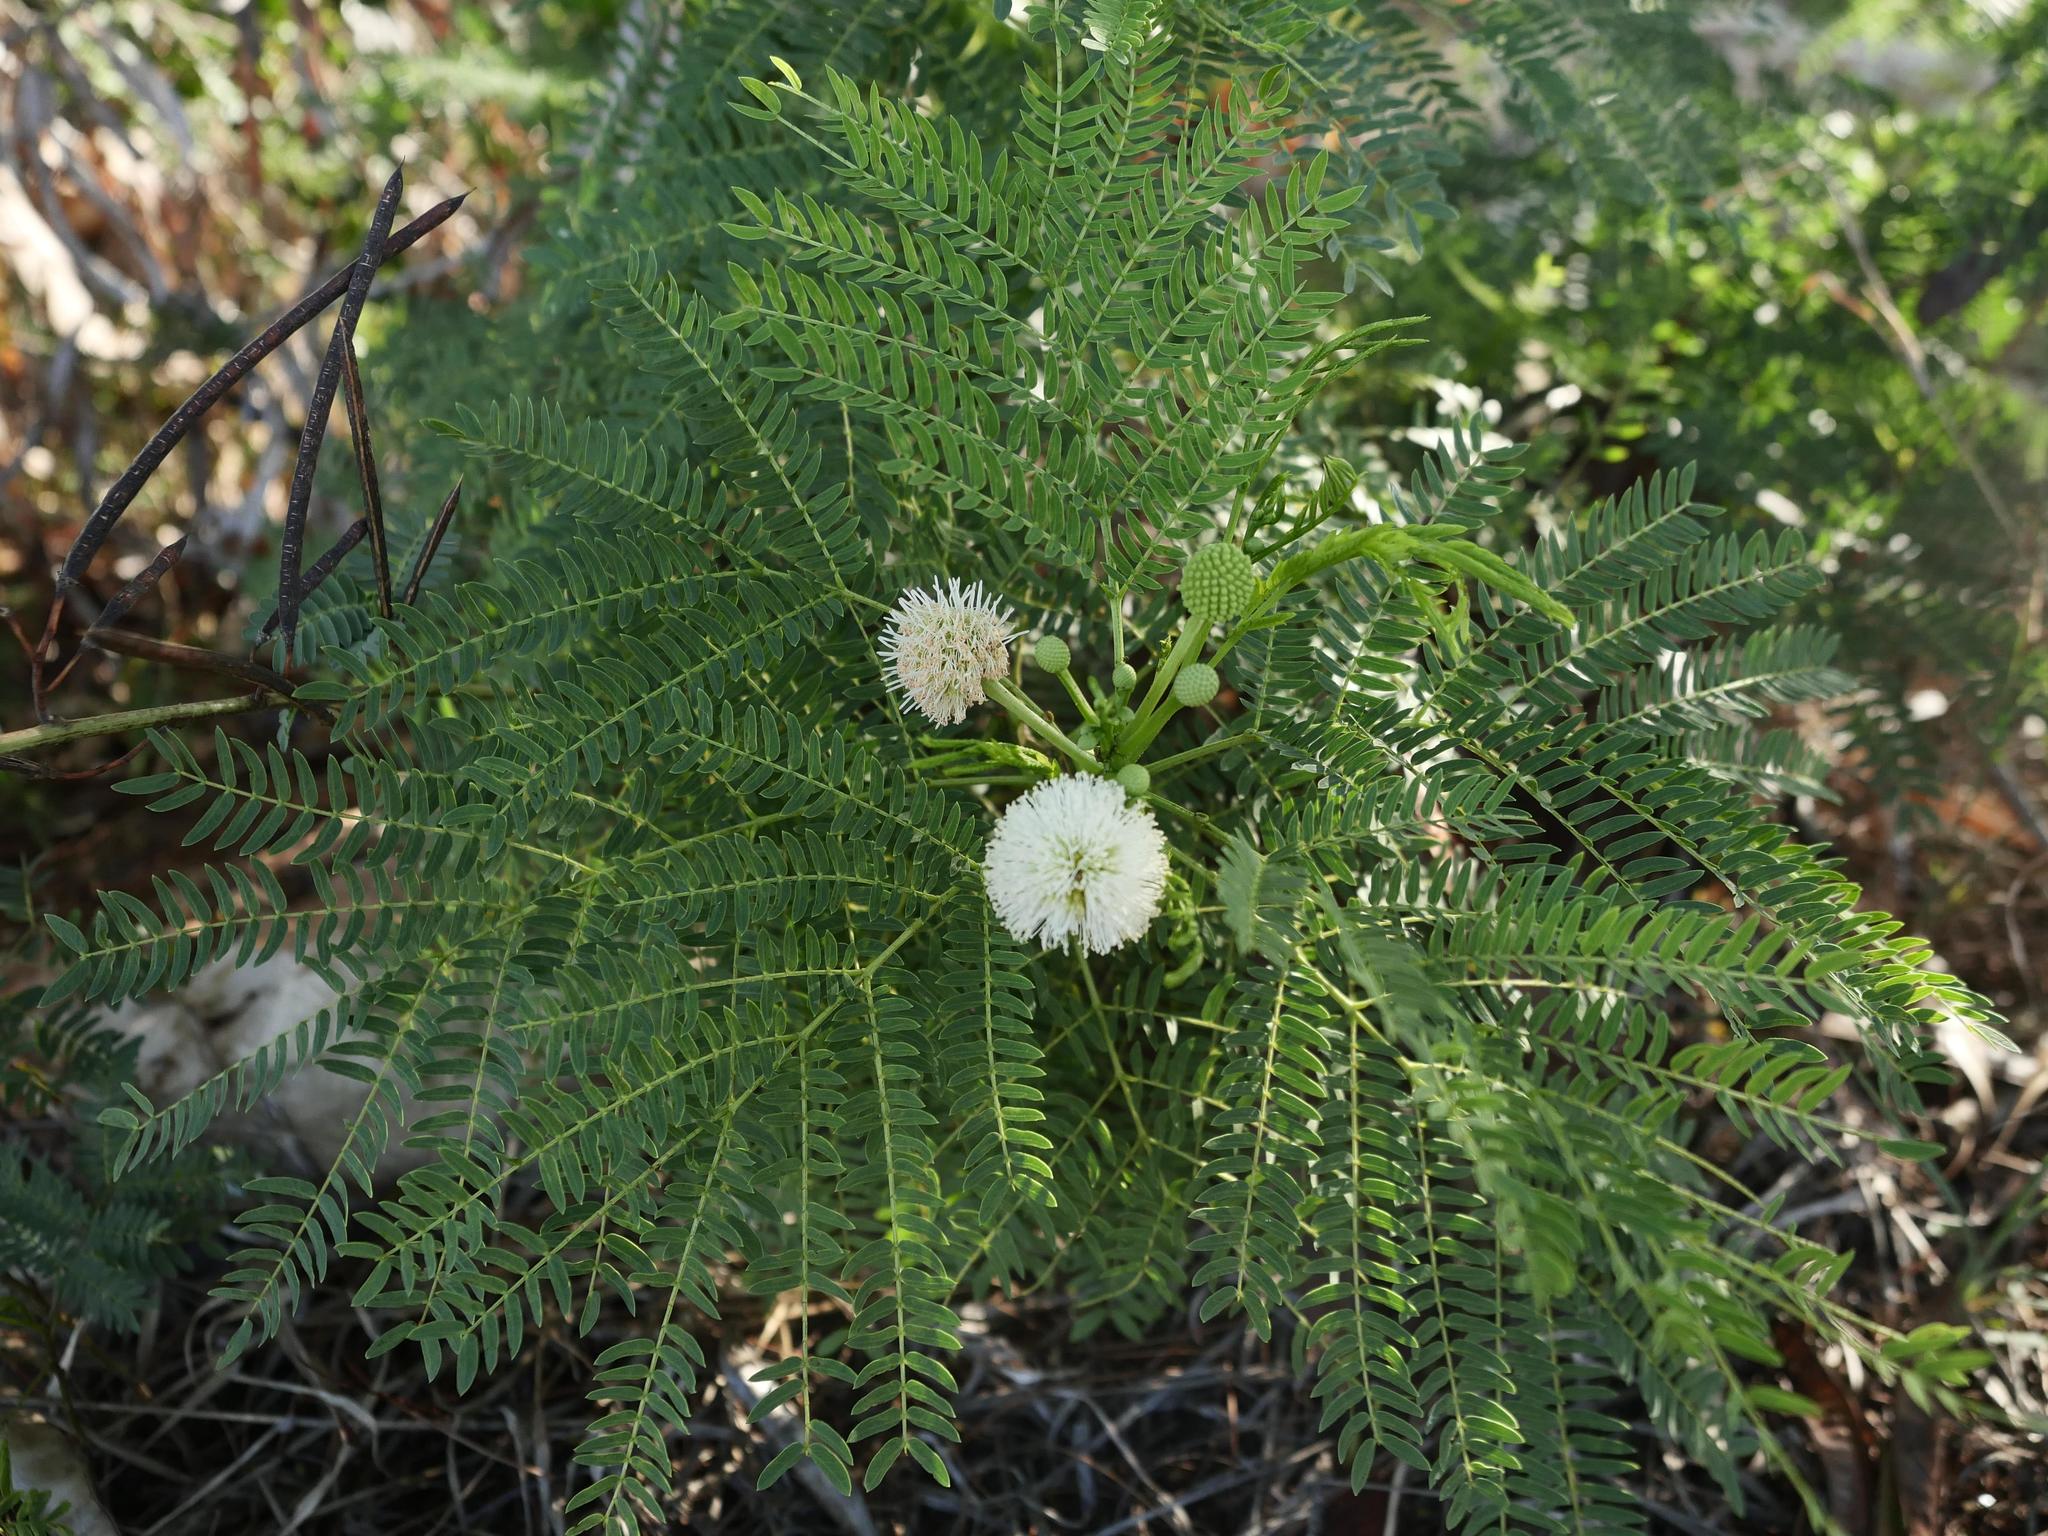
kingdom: Plantae
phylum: Tracheophyta
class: Magnoliopsida
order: Fabales
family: Fabaceae
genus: Leucaena
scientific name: Leucaena leucocephala
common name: White leadtree
